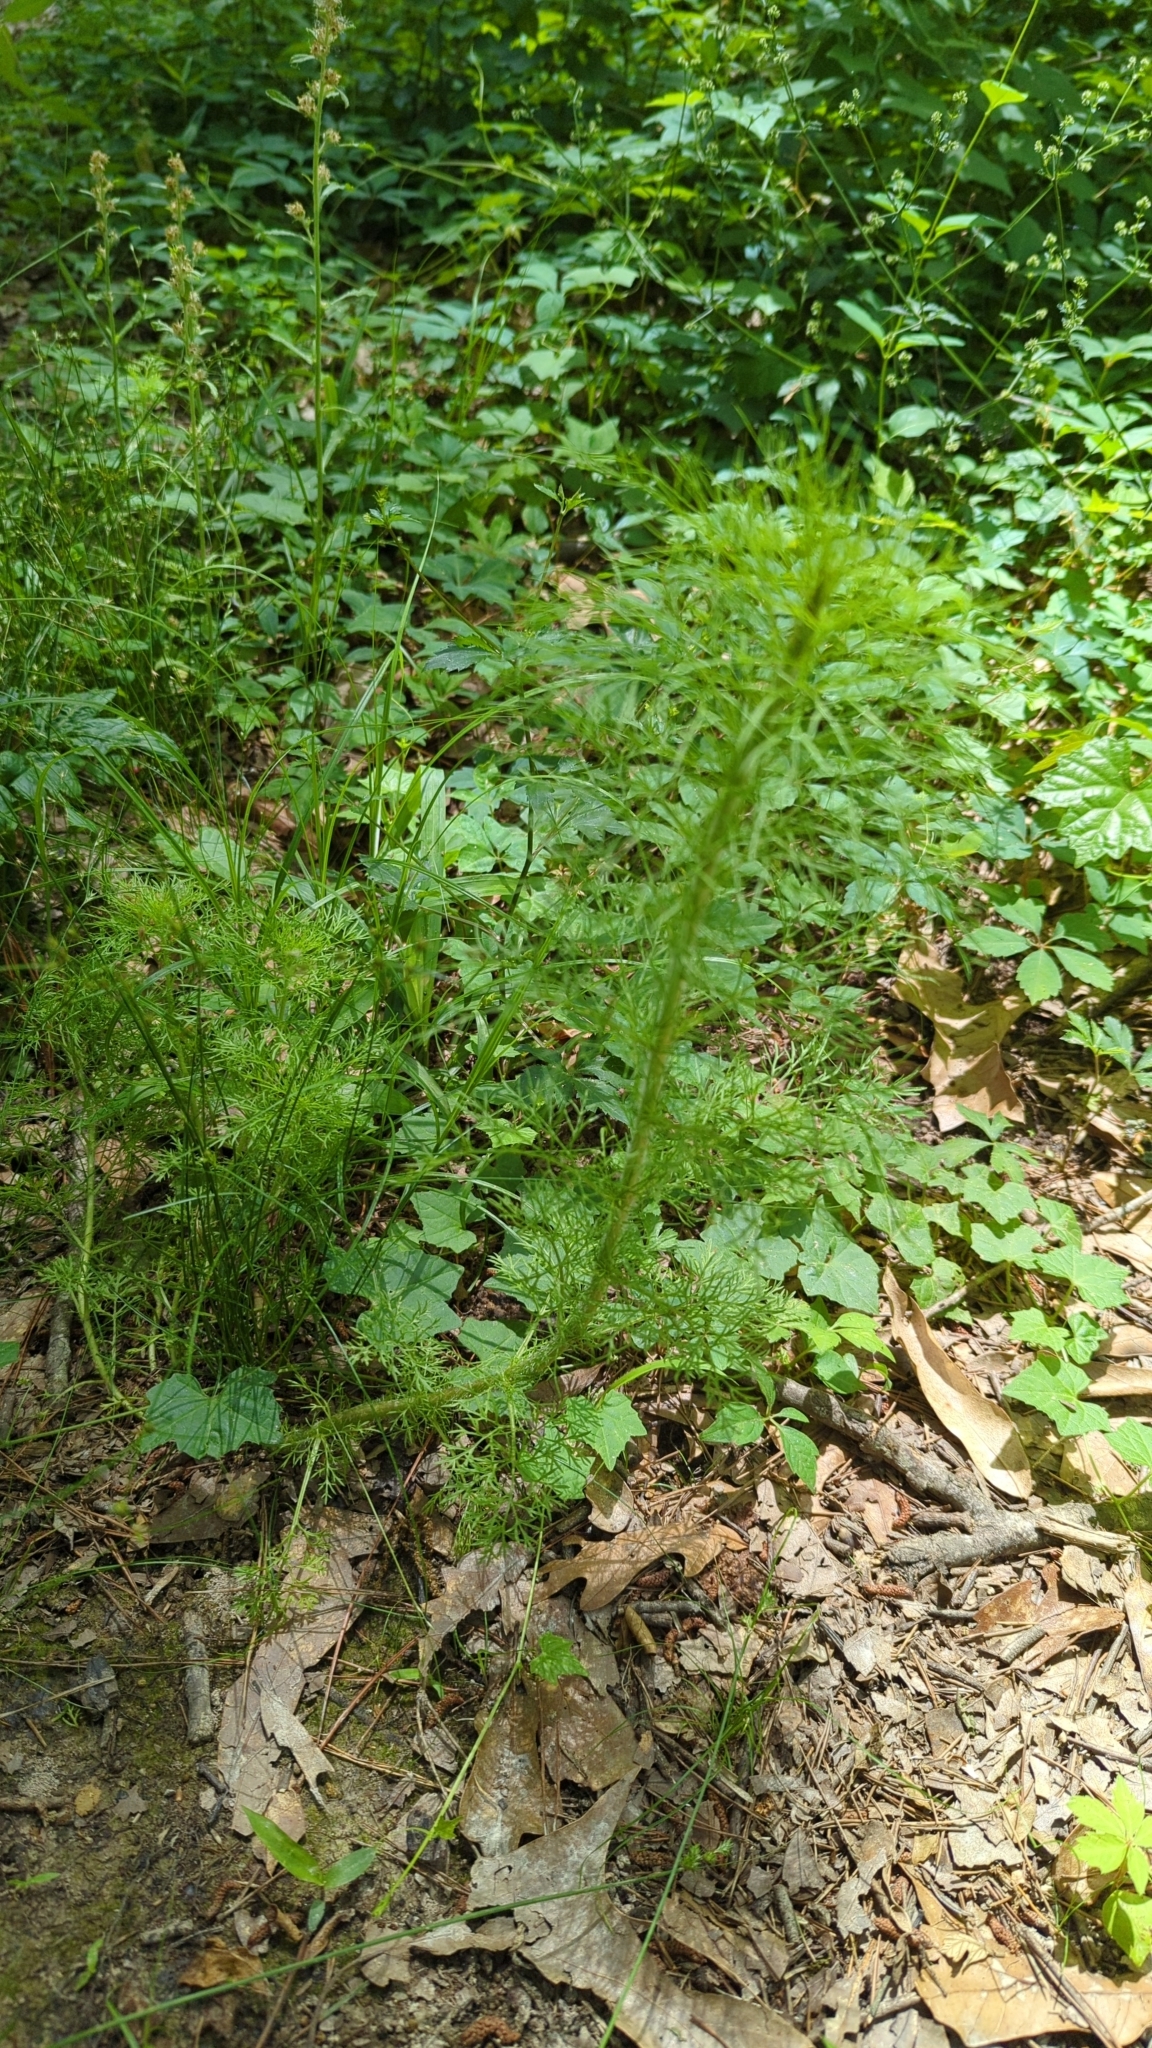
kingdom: Plantae
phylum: Tracheophyta
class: Magnoliopsida
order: Asterales
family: Asteraceae
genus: Eupatorium
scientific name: Eupatorium capillifolium
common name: Dog-fennel
